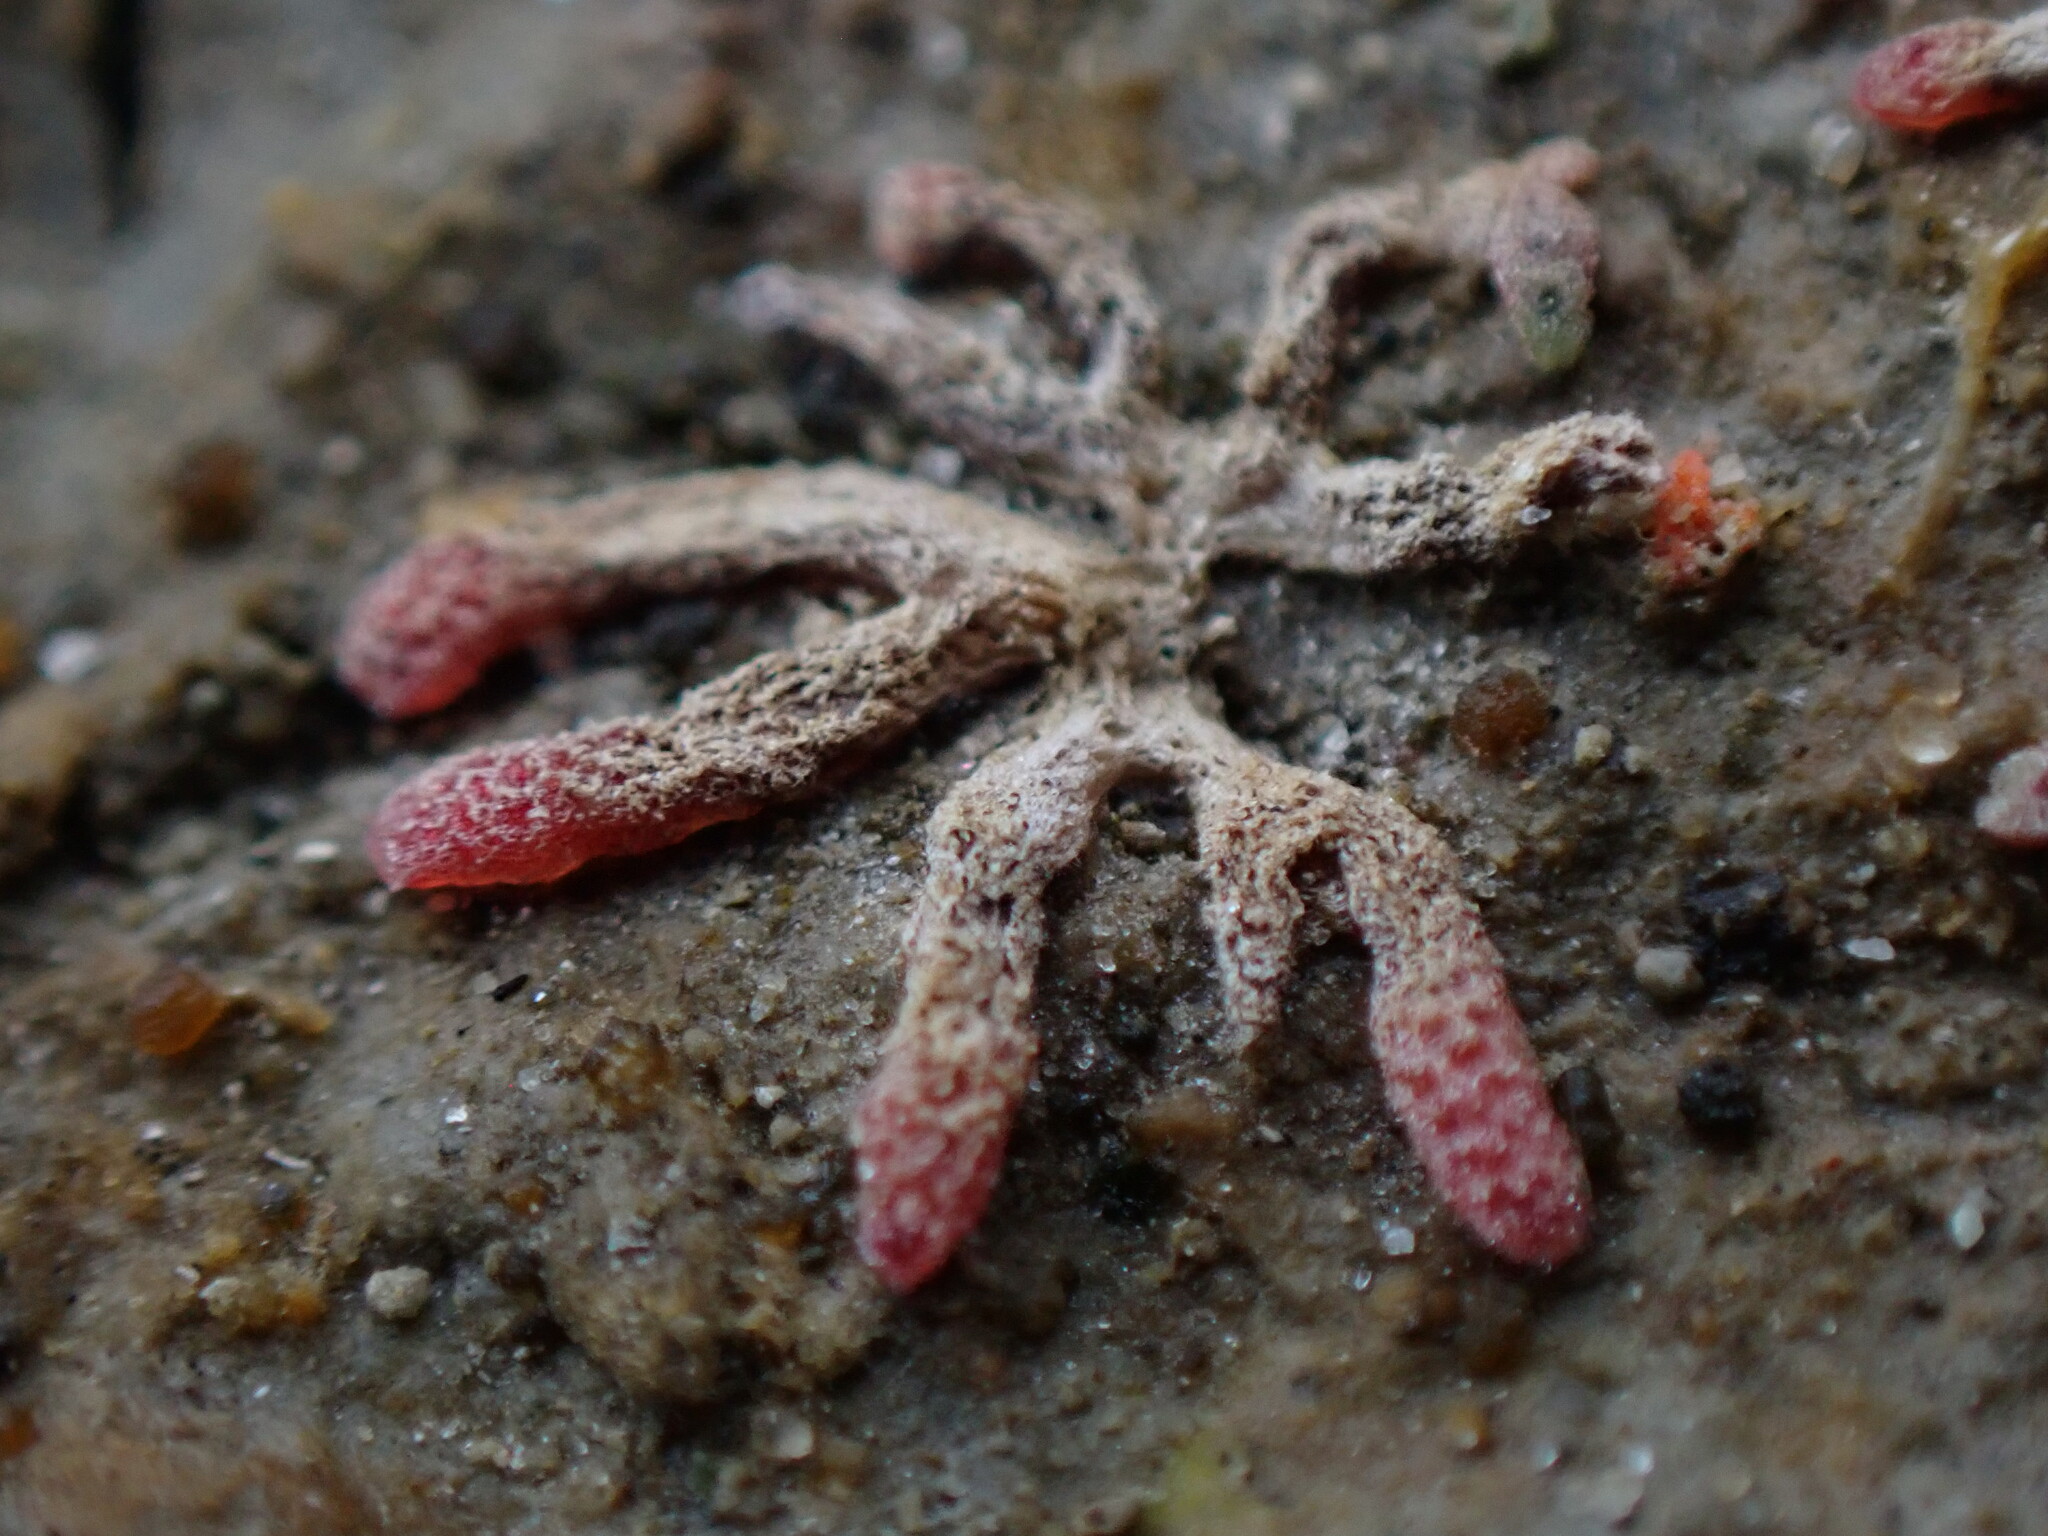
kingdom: Plantae
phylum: Marchantiophyta
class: Marchantiopsida
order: Marchantiales
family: Ricciaceae
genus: Riccia
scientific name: Riccia frostii
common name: Frost s crystalwort
